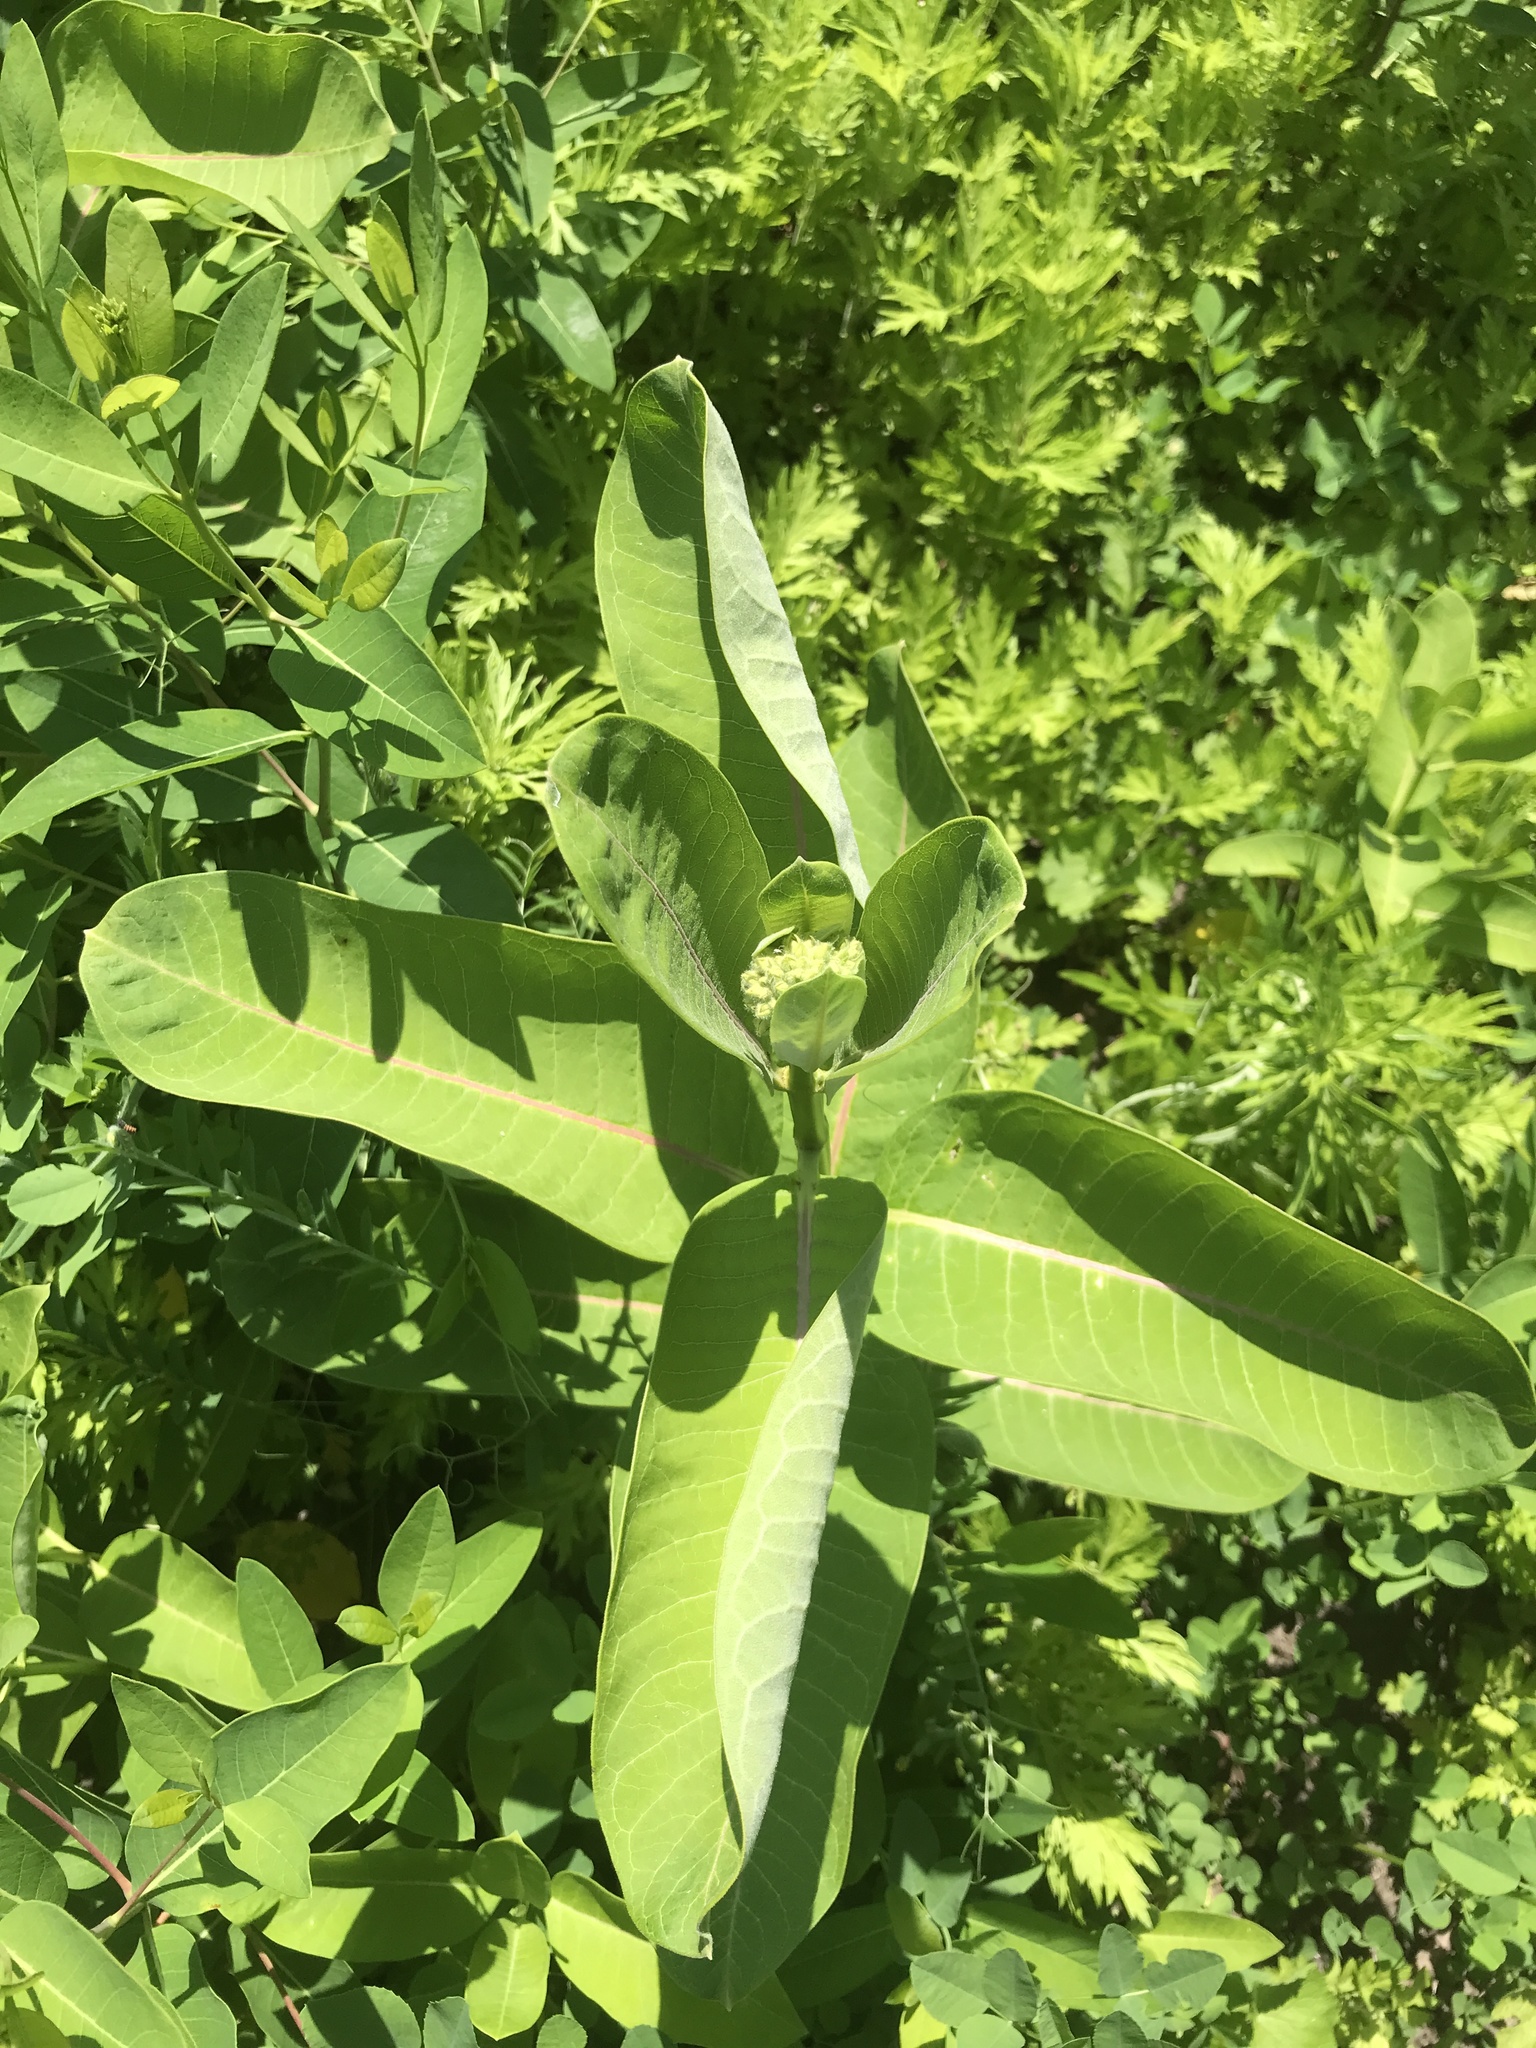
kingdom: Plantae
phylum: Tracheophyta
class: Magnoliopsida
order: Gentianales
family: Apocynaceae
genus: Asclepias
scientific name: Asclepias syriaca
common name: Common milkweed
